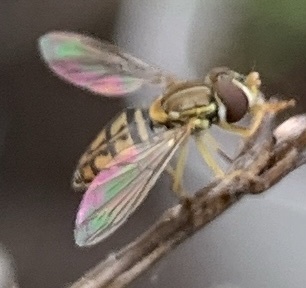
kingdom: Animalia
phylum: Arthropoda
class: Insecta
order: Diptera
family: Syrphidae
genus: Toxomerus
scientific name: Toxomerus marginatus
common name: Syrphid fly
